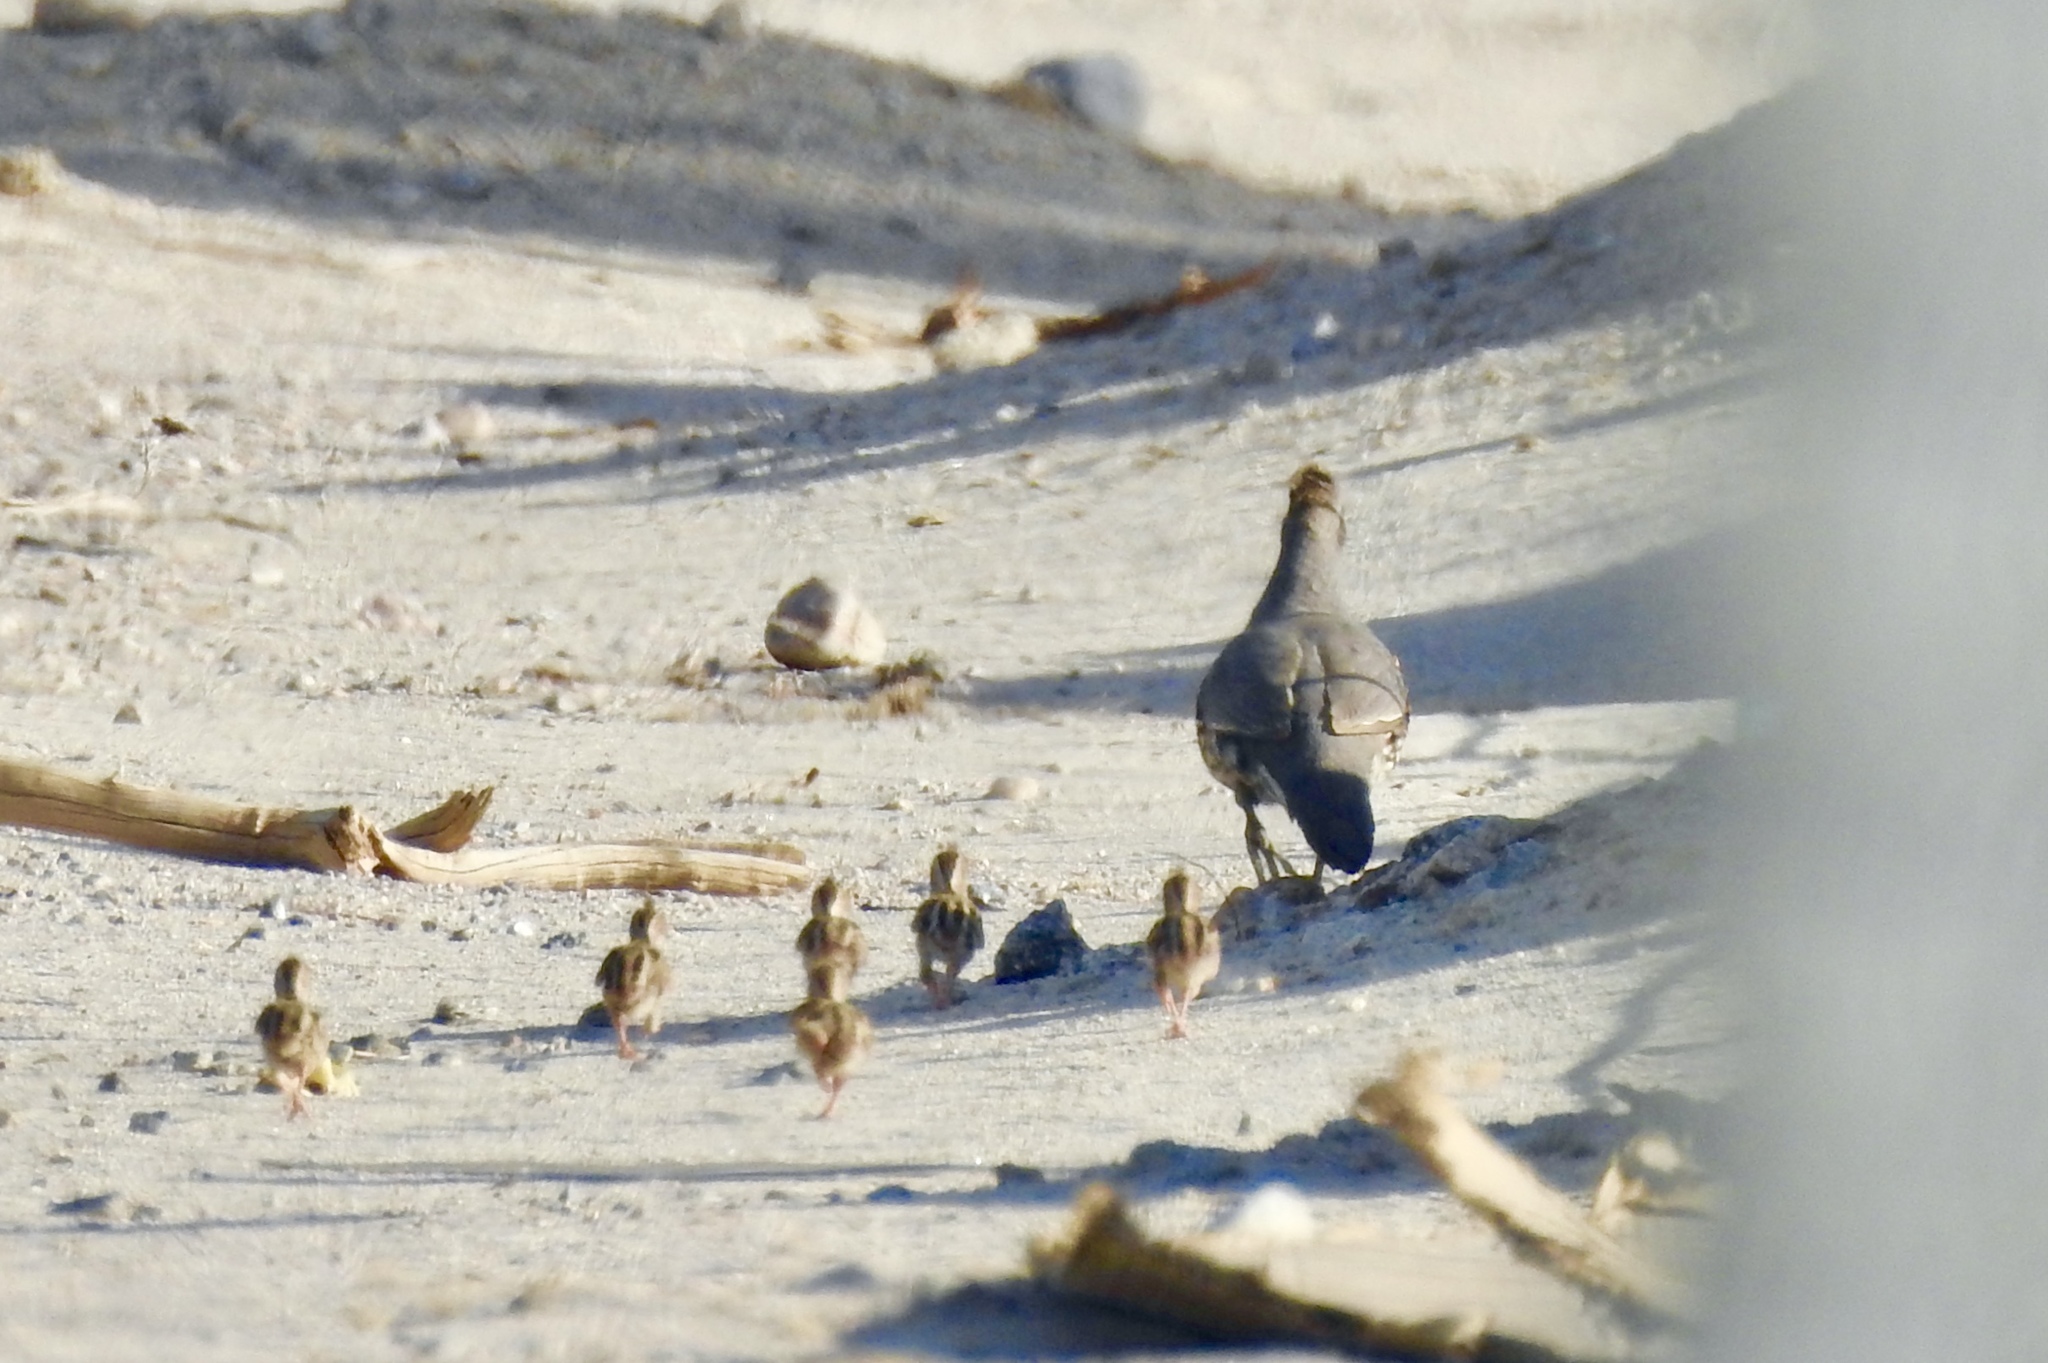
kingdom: Animalia
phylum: Chordata
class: Aves
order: Galliformes
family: Odontophoridae
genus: Callipepla
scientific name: Callipepla gambelii
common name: Gambel's quail
